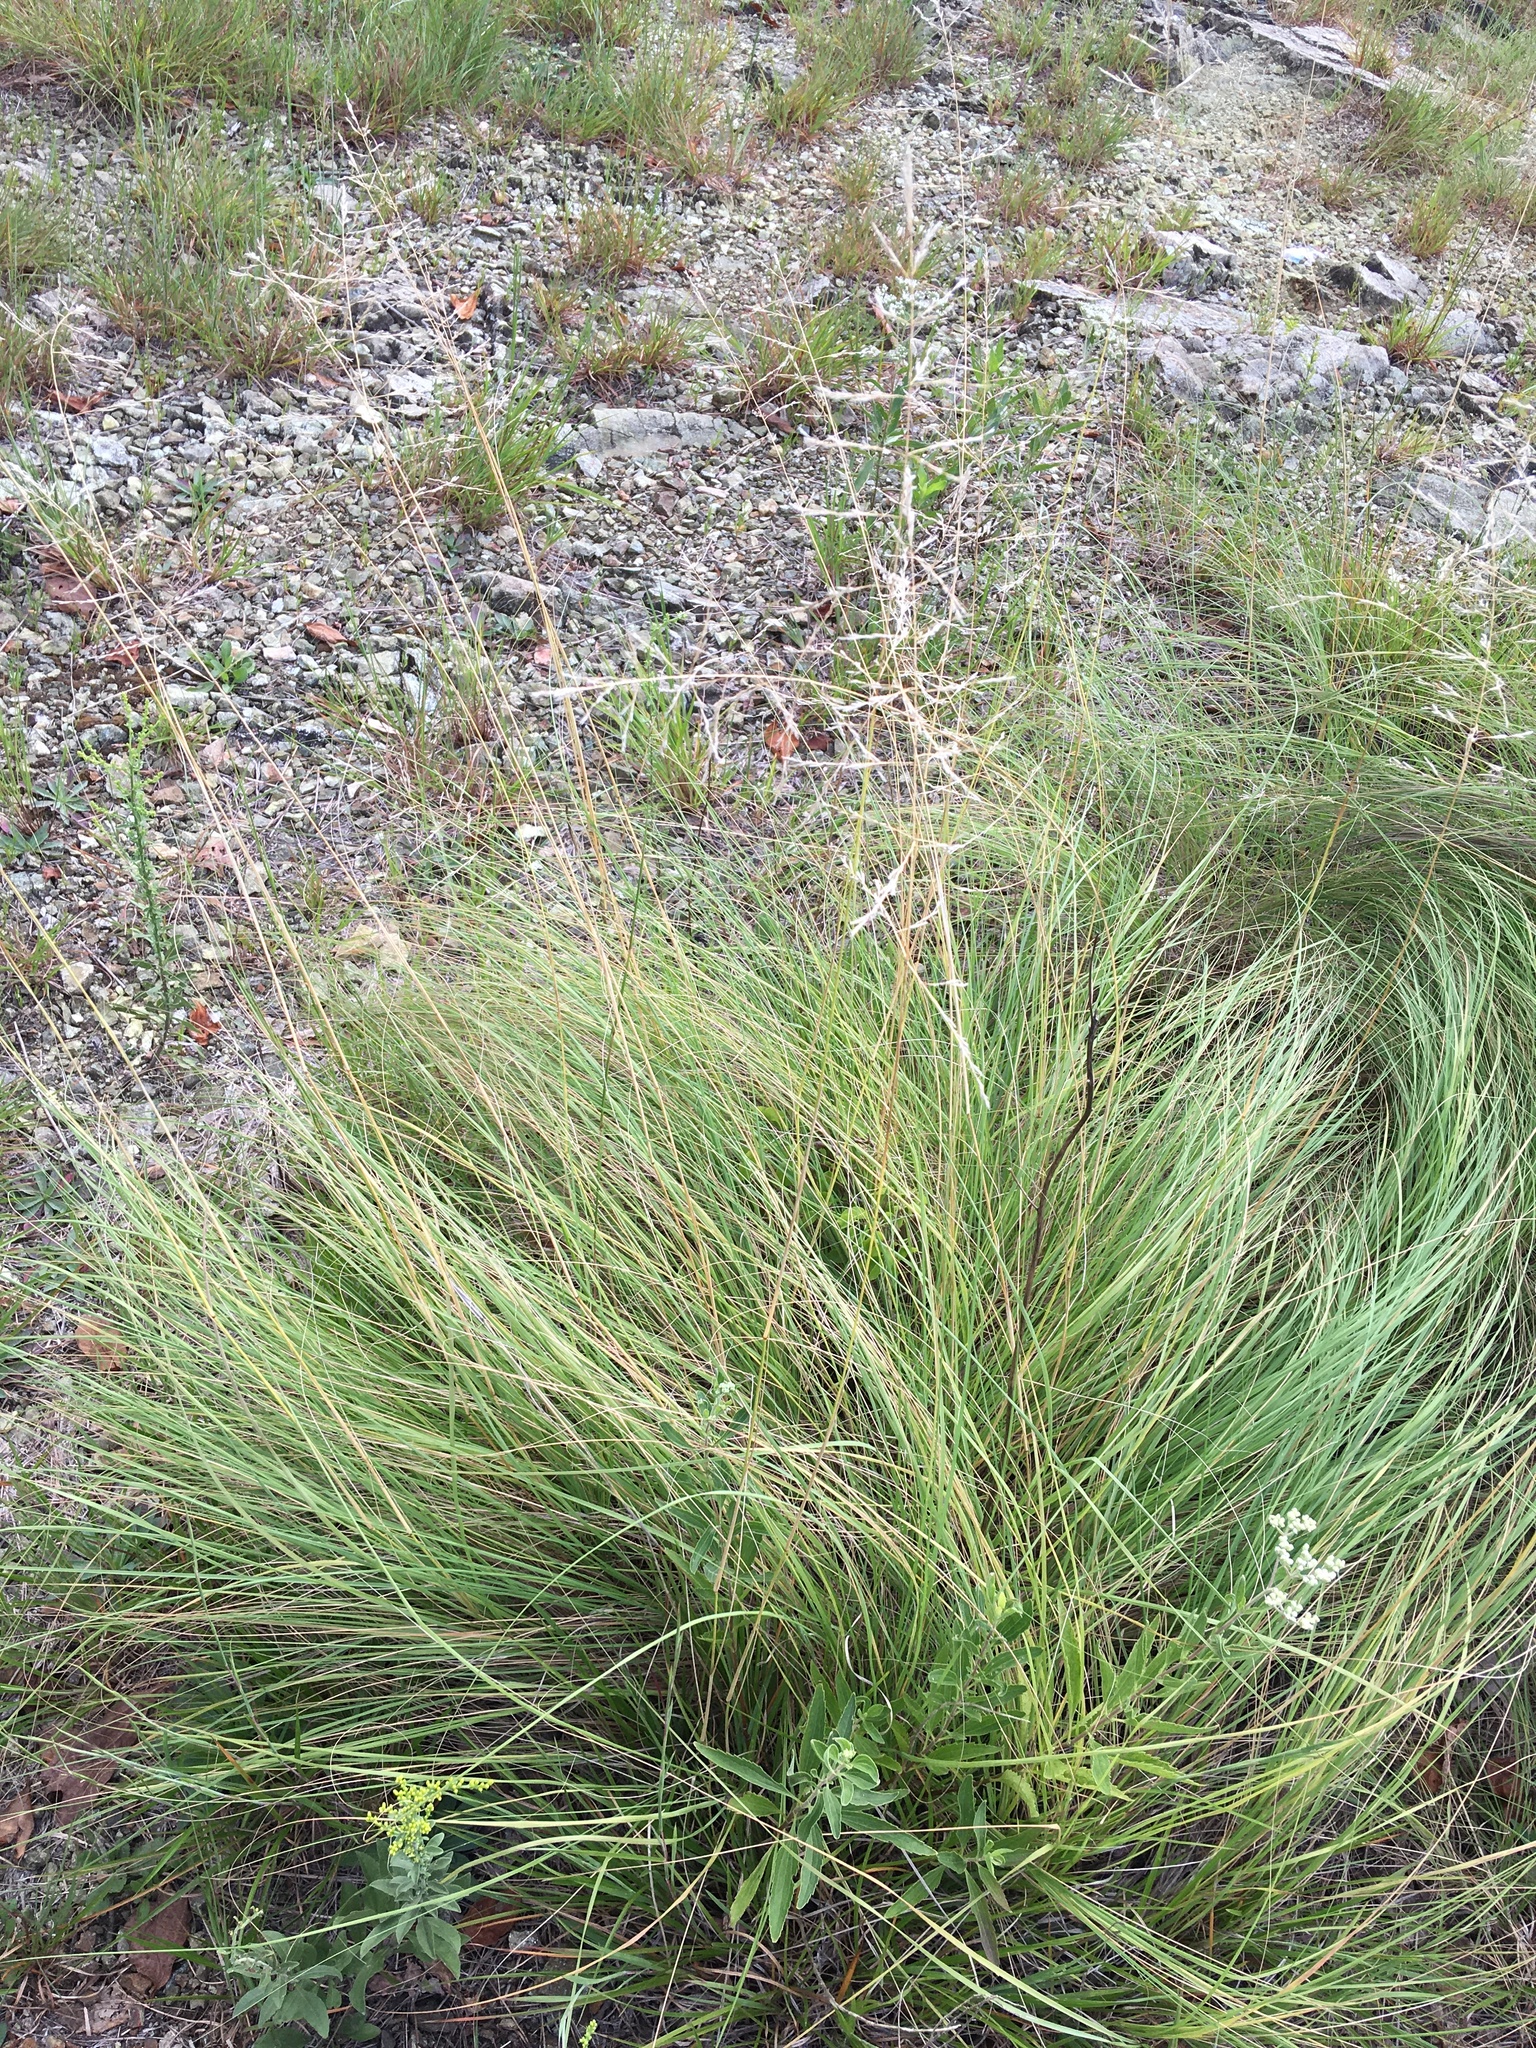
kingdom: Plantae
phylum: Tracheophyta
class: Liliopsida
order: Poales
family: Poaceae
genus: Eragrostis
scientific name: Eragrostis curvula
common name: African love-grass
